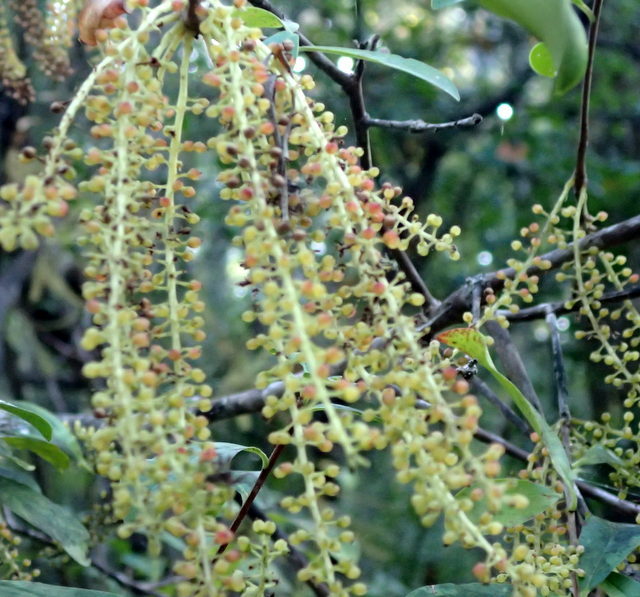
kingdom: Plantae
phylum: Tracheophyta
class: Magnoliopsida
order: Ericales
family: Cyrillaceae
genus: Cyrilla
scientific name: Cyrilla racemiflora
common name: Black titi
